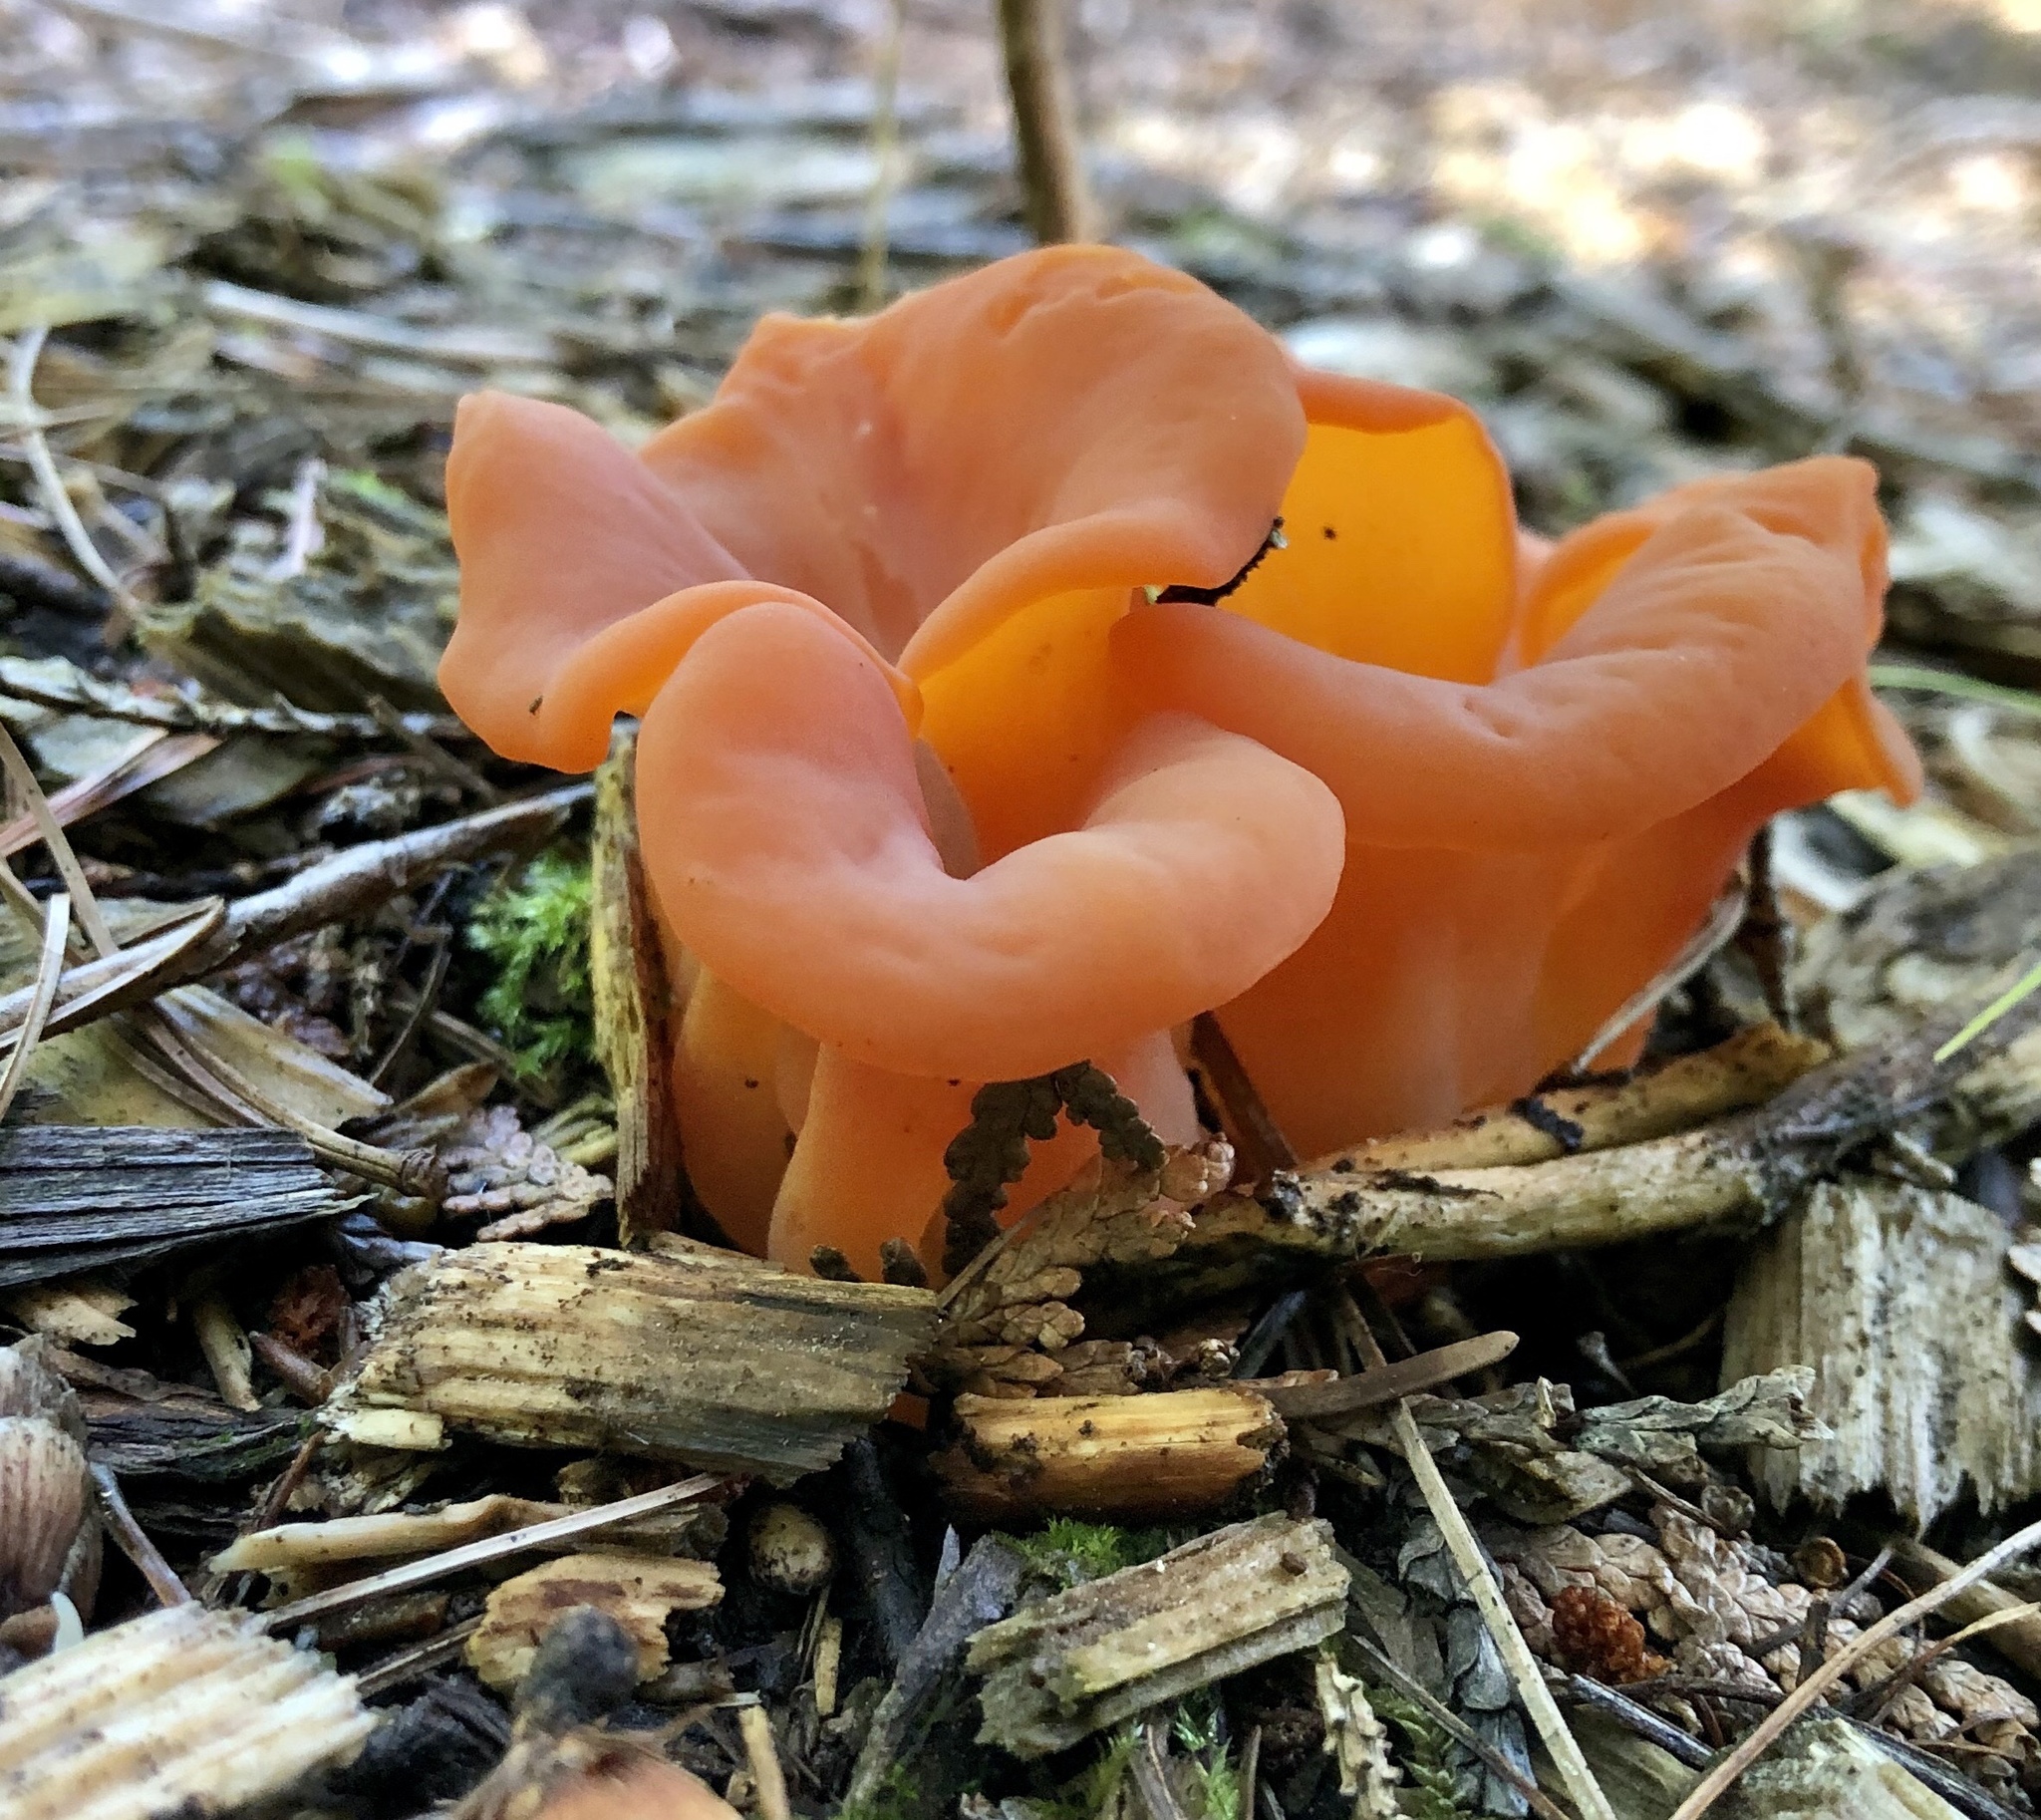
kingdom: Fungi
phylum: Basidiomycota
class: Agaricomycetes
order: Auriculariales
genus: Guepinia
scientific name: Guepinia helvelloides
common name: Salmon salad
